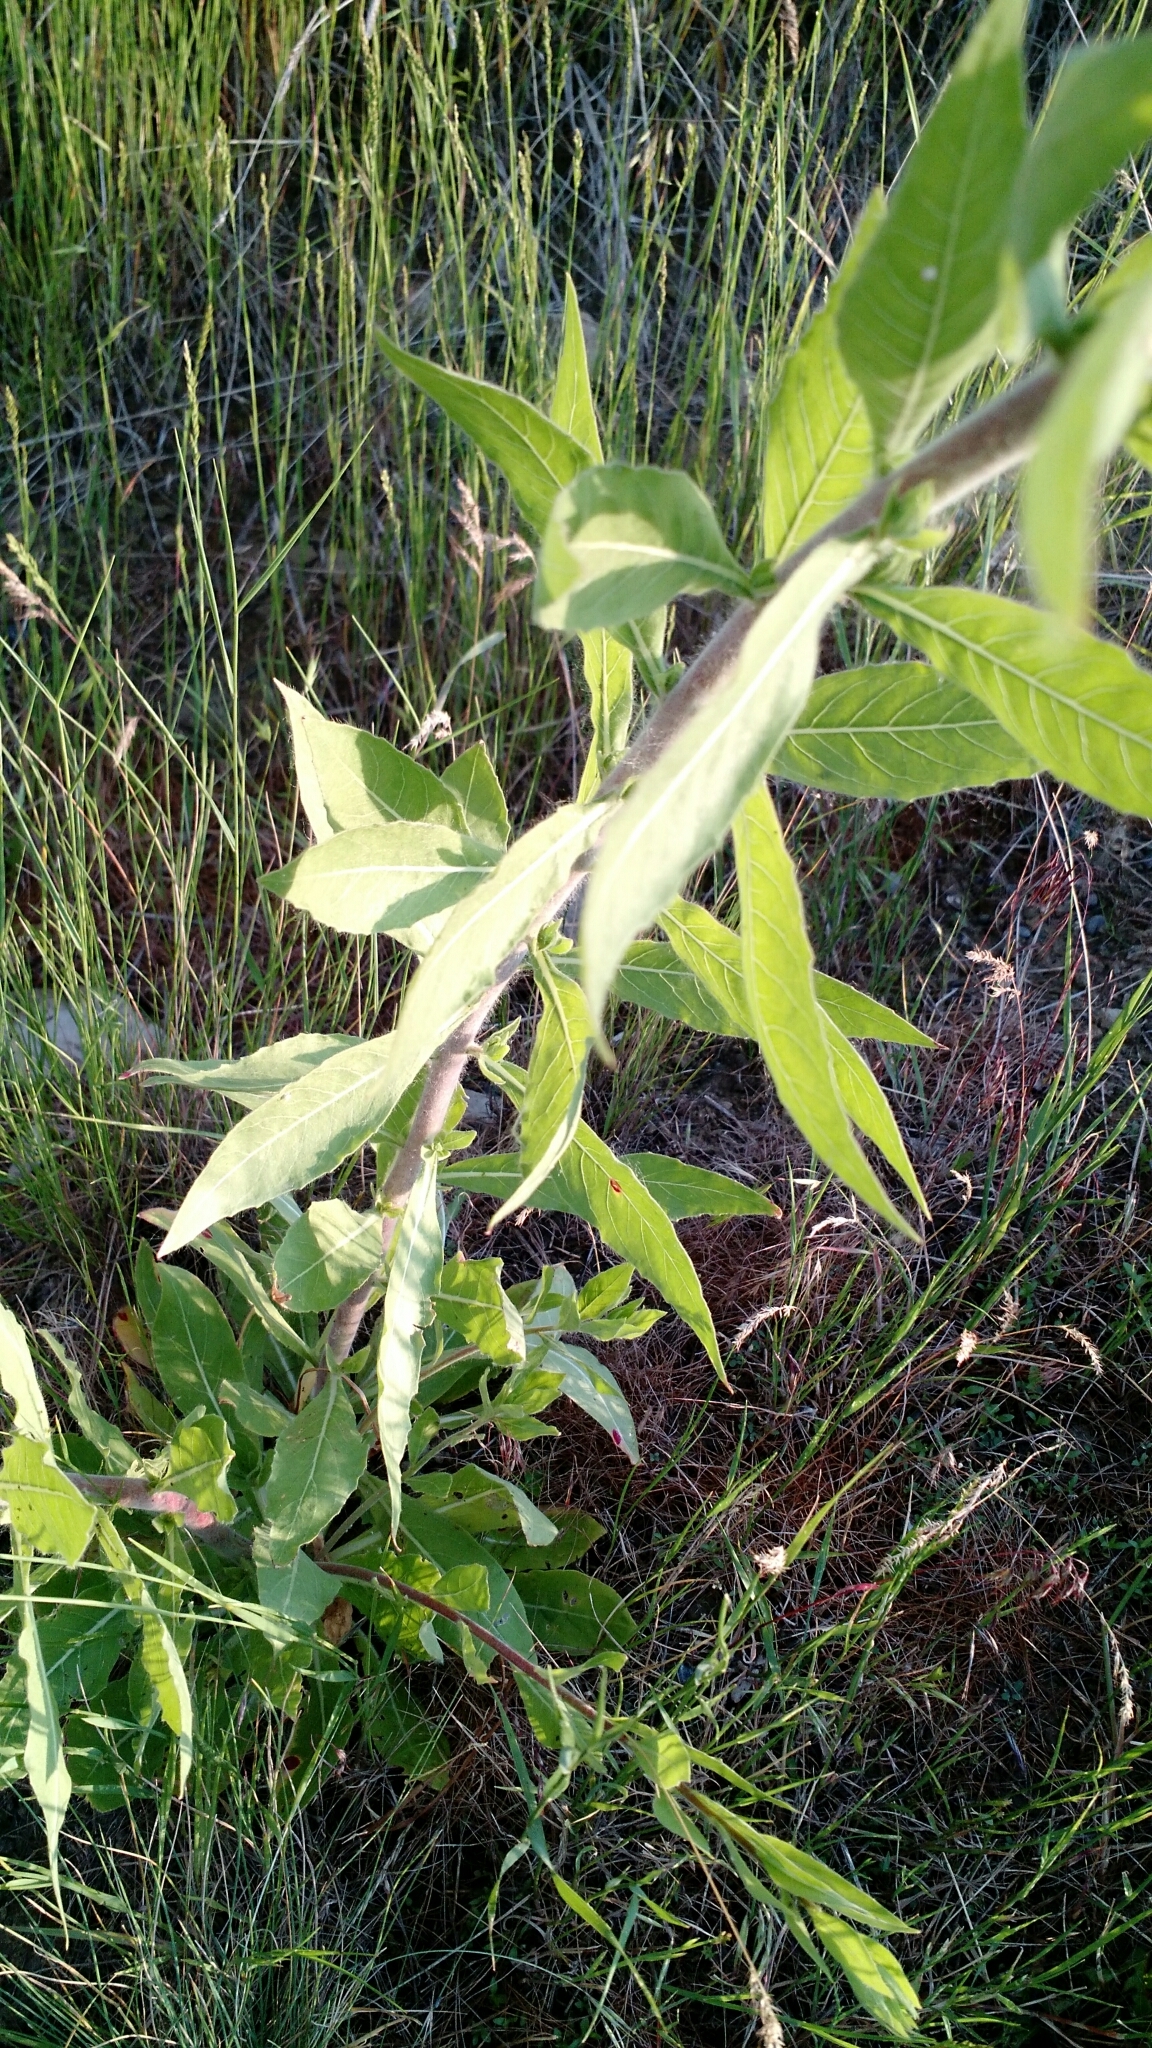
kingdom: Plantae
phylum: Tracheophyta
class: Magnoliopsida
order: Myrtales
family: Onagraceae
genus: Oenothera
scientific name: Oenothera curtiflora
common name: Velvetweed
